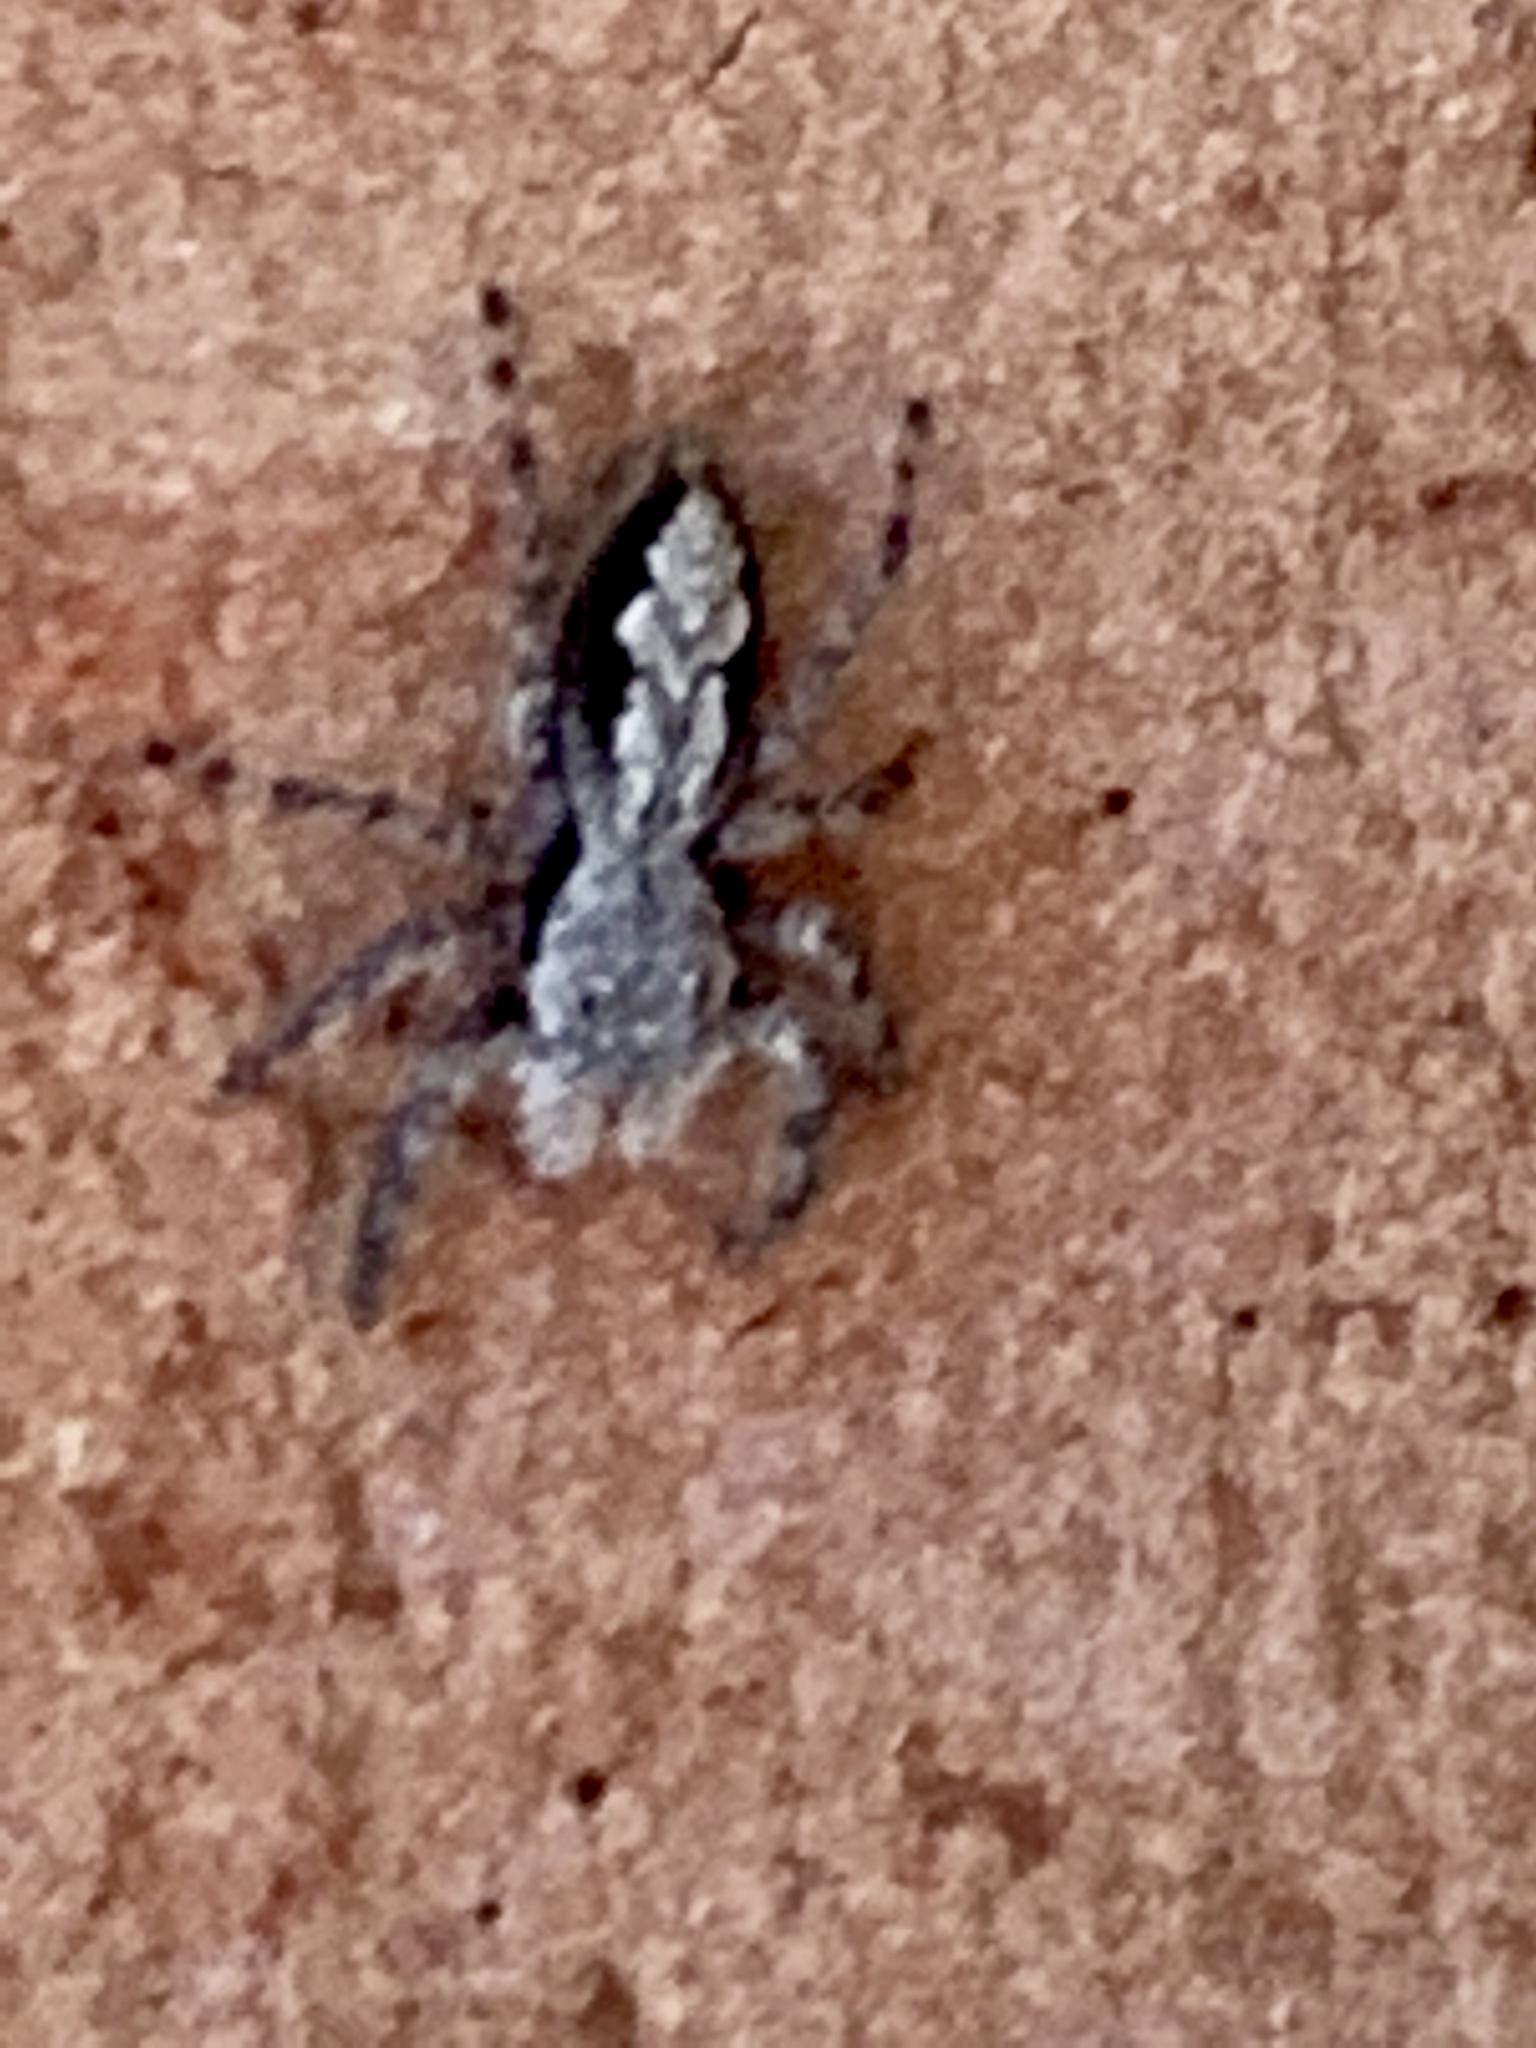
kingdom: Animalia
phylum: Arthropoda
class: Arachnida
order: Araneae
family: Salticidae
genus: Platycryptus
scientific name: Platycryptus undatus
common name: Tan jumping spider
